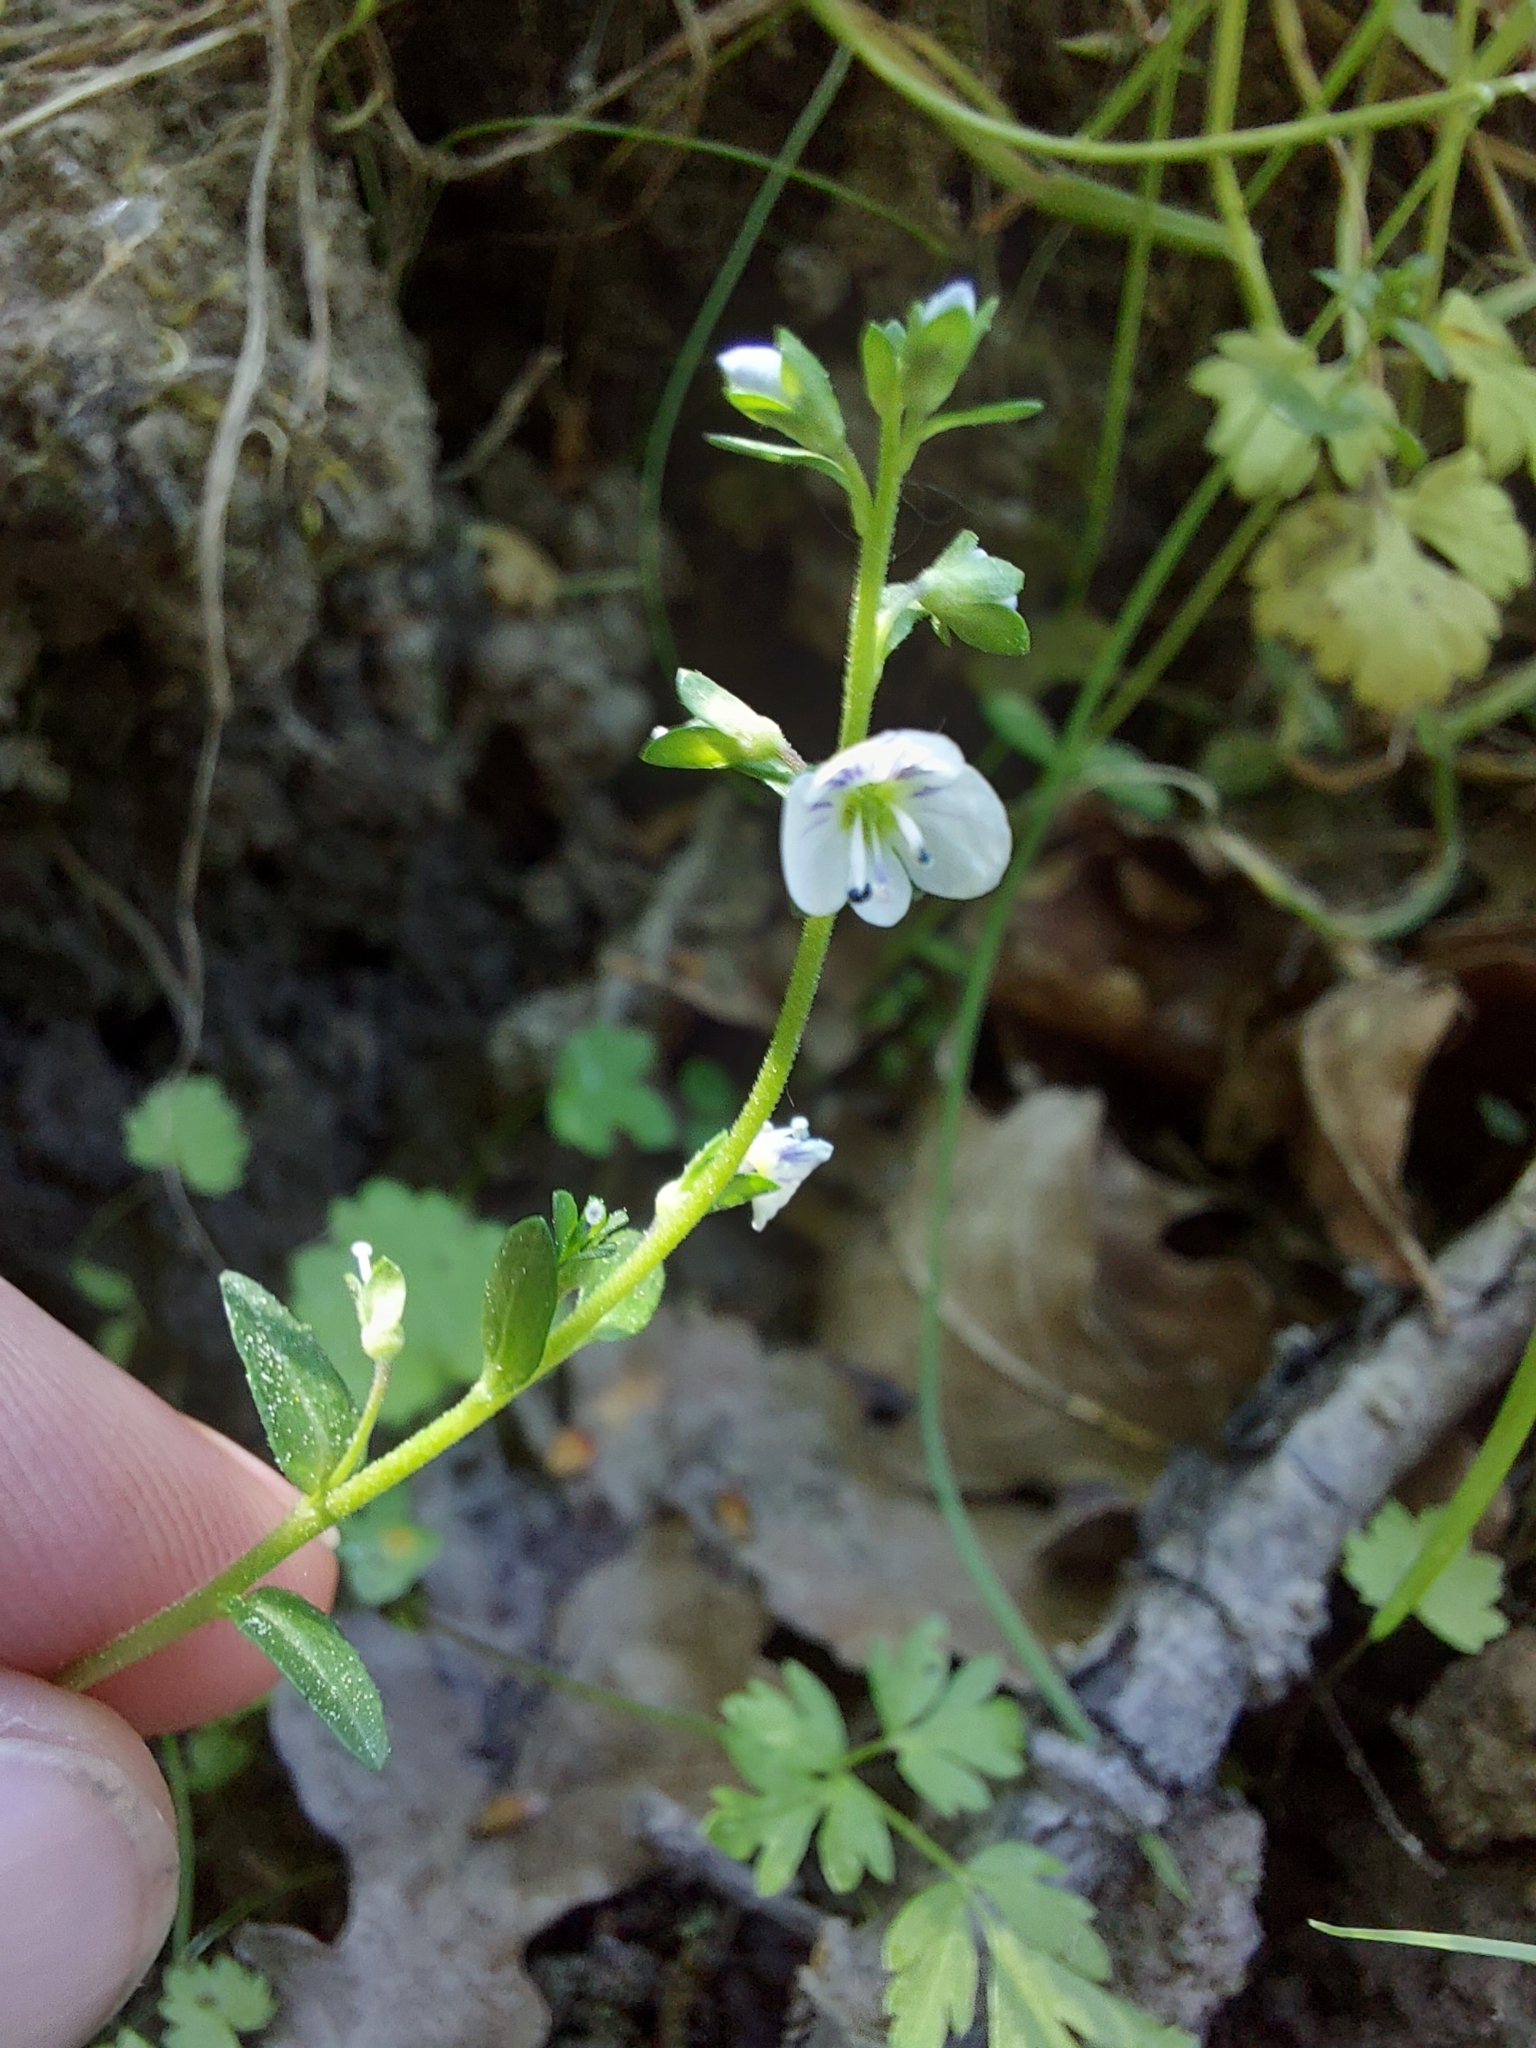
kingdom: Plantae
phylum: Tracheophyta
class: Magnoliopsida
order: Lamiales
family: Plantaginaceae
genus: Veronica
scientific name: Veronica serpyllifolia
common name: Thyme-leaved speedwell
